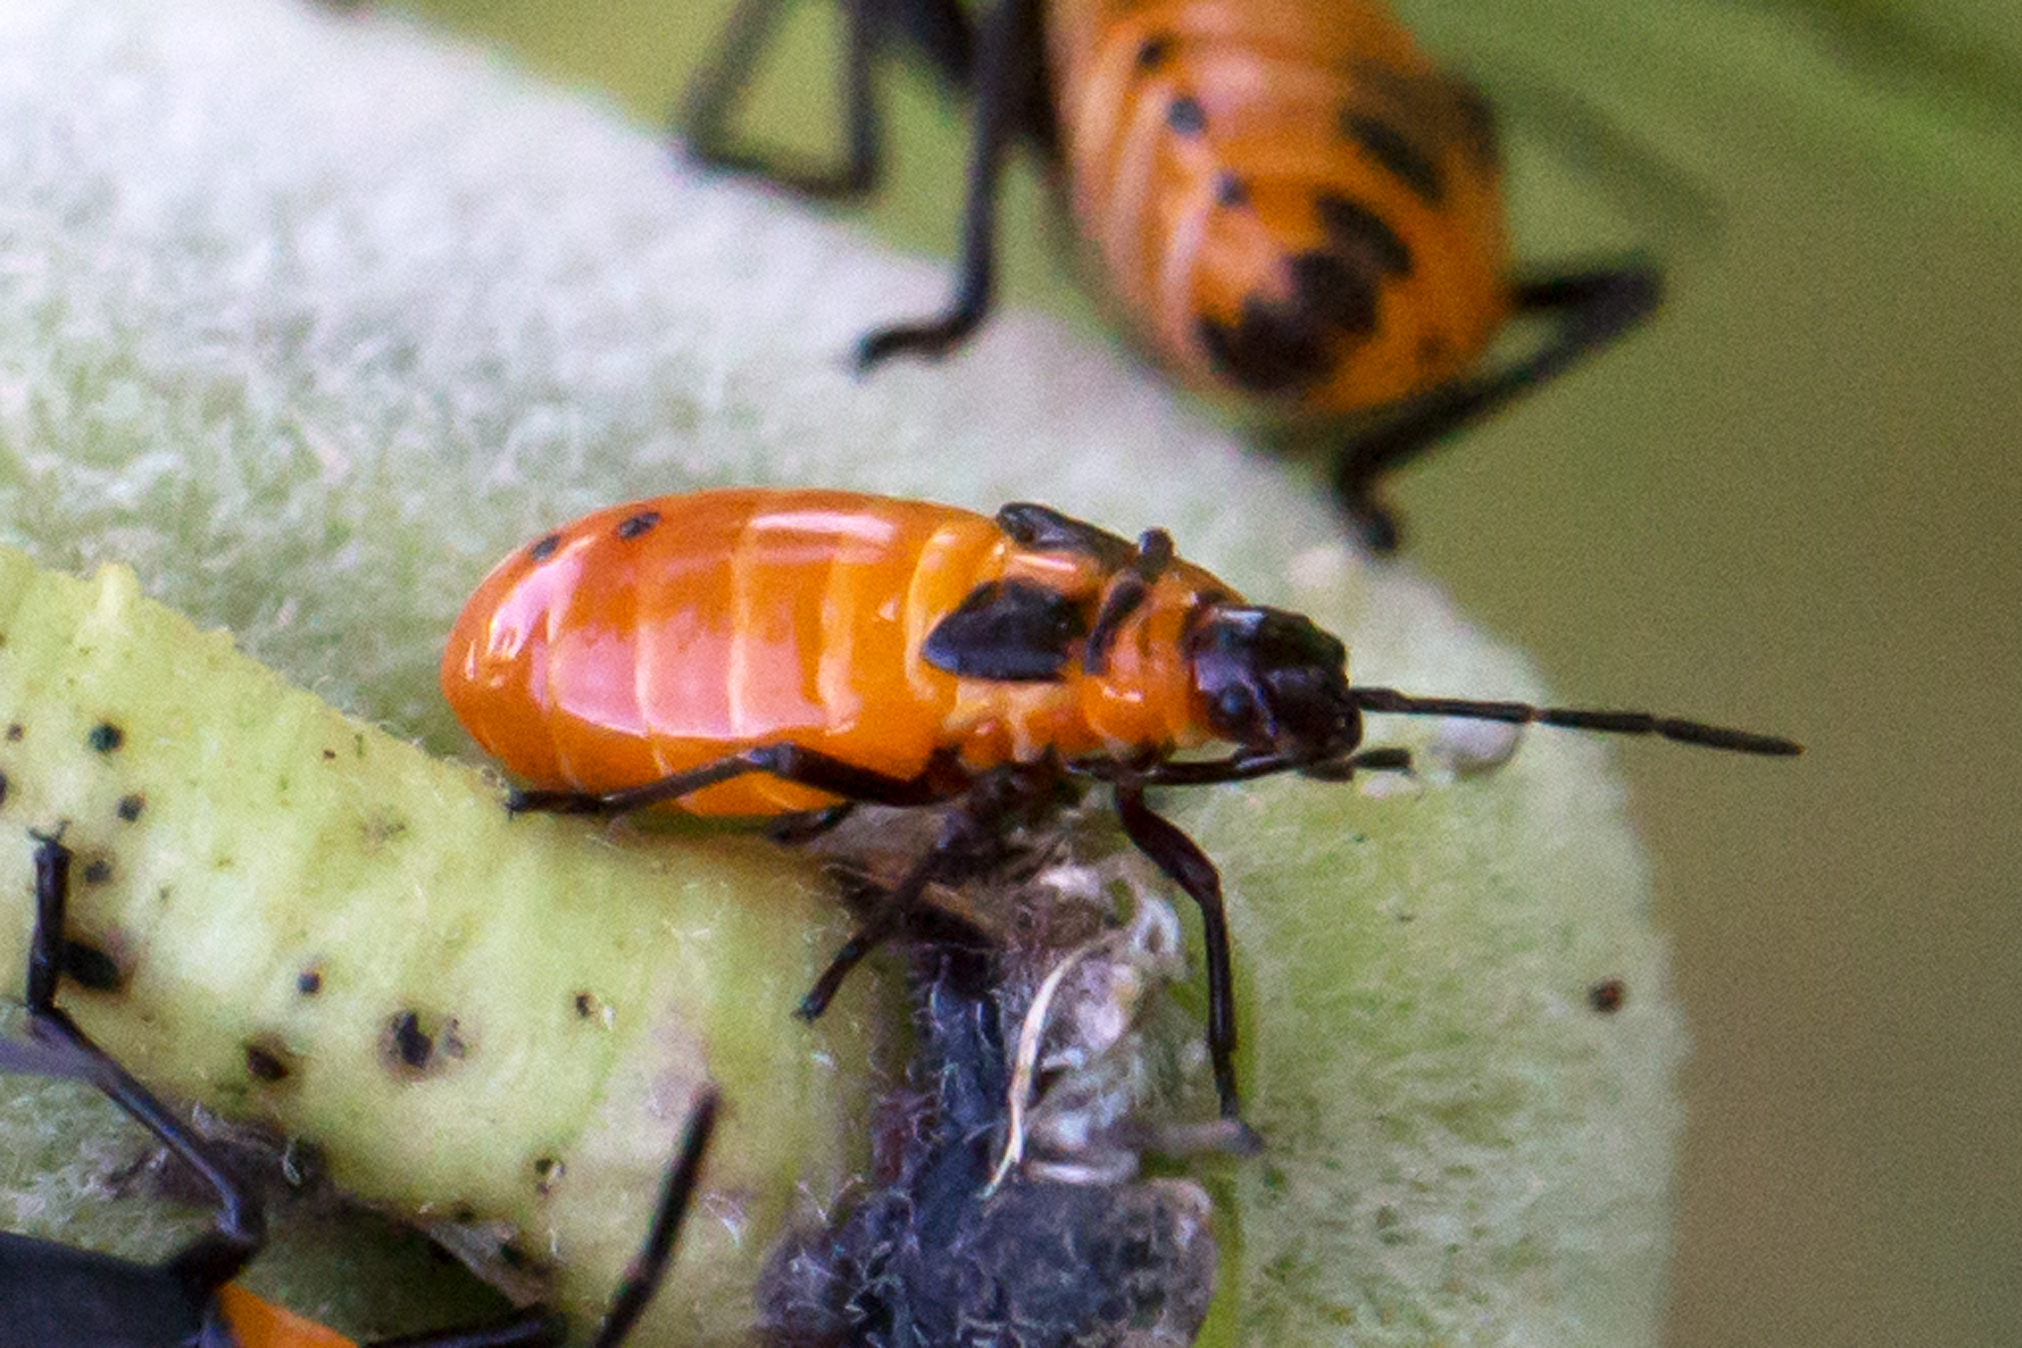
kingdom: Animalia
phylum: Arthropoda
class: Insecta
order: Hemiptera
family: Lygaeidae
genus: Oncopeltus
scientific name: Oncopeltus fasciatus
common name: Large milkweed bug
